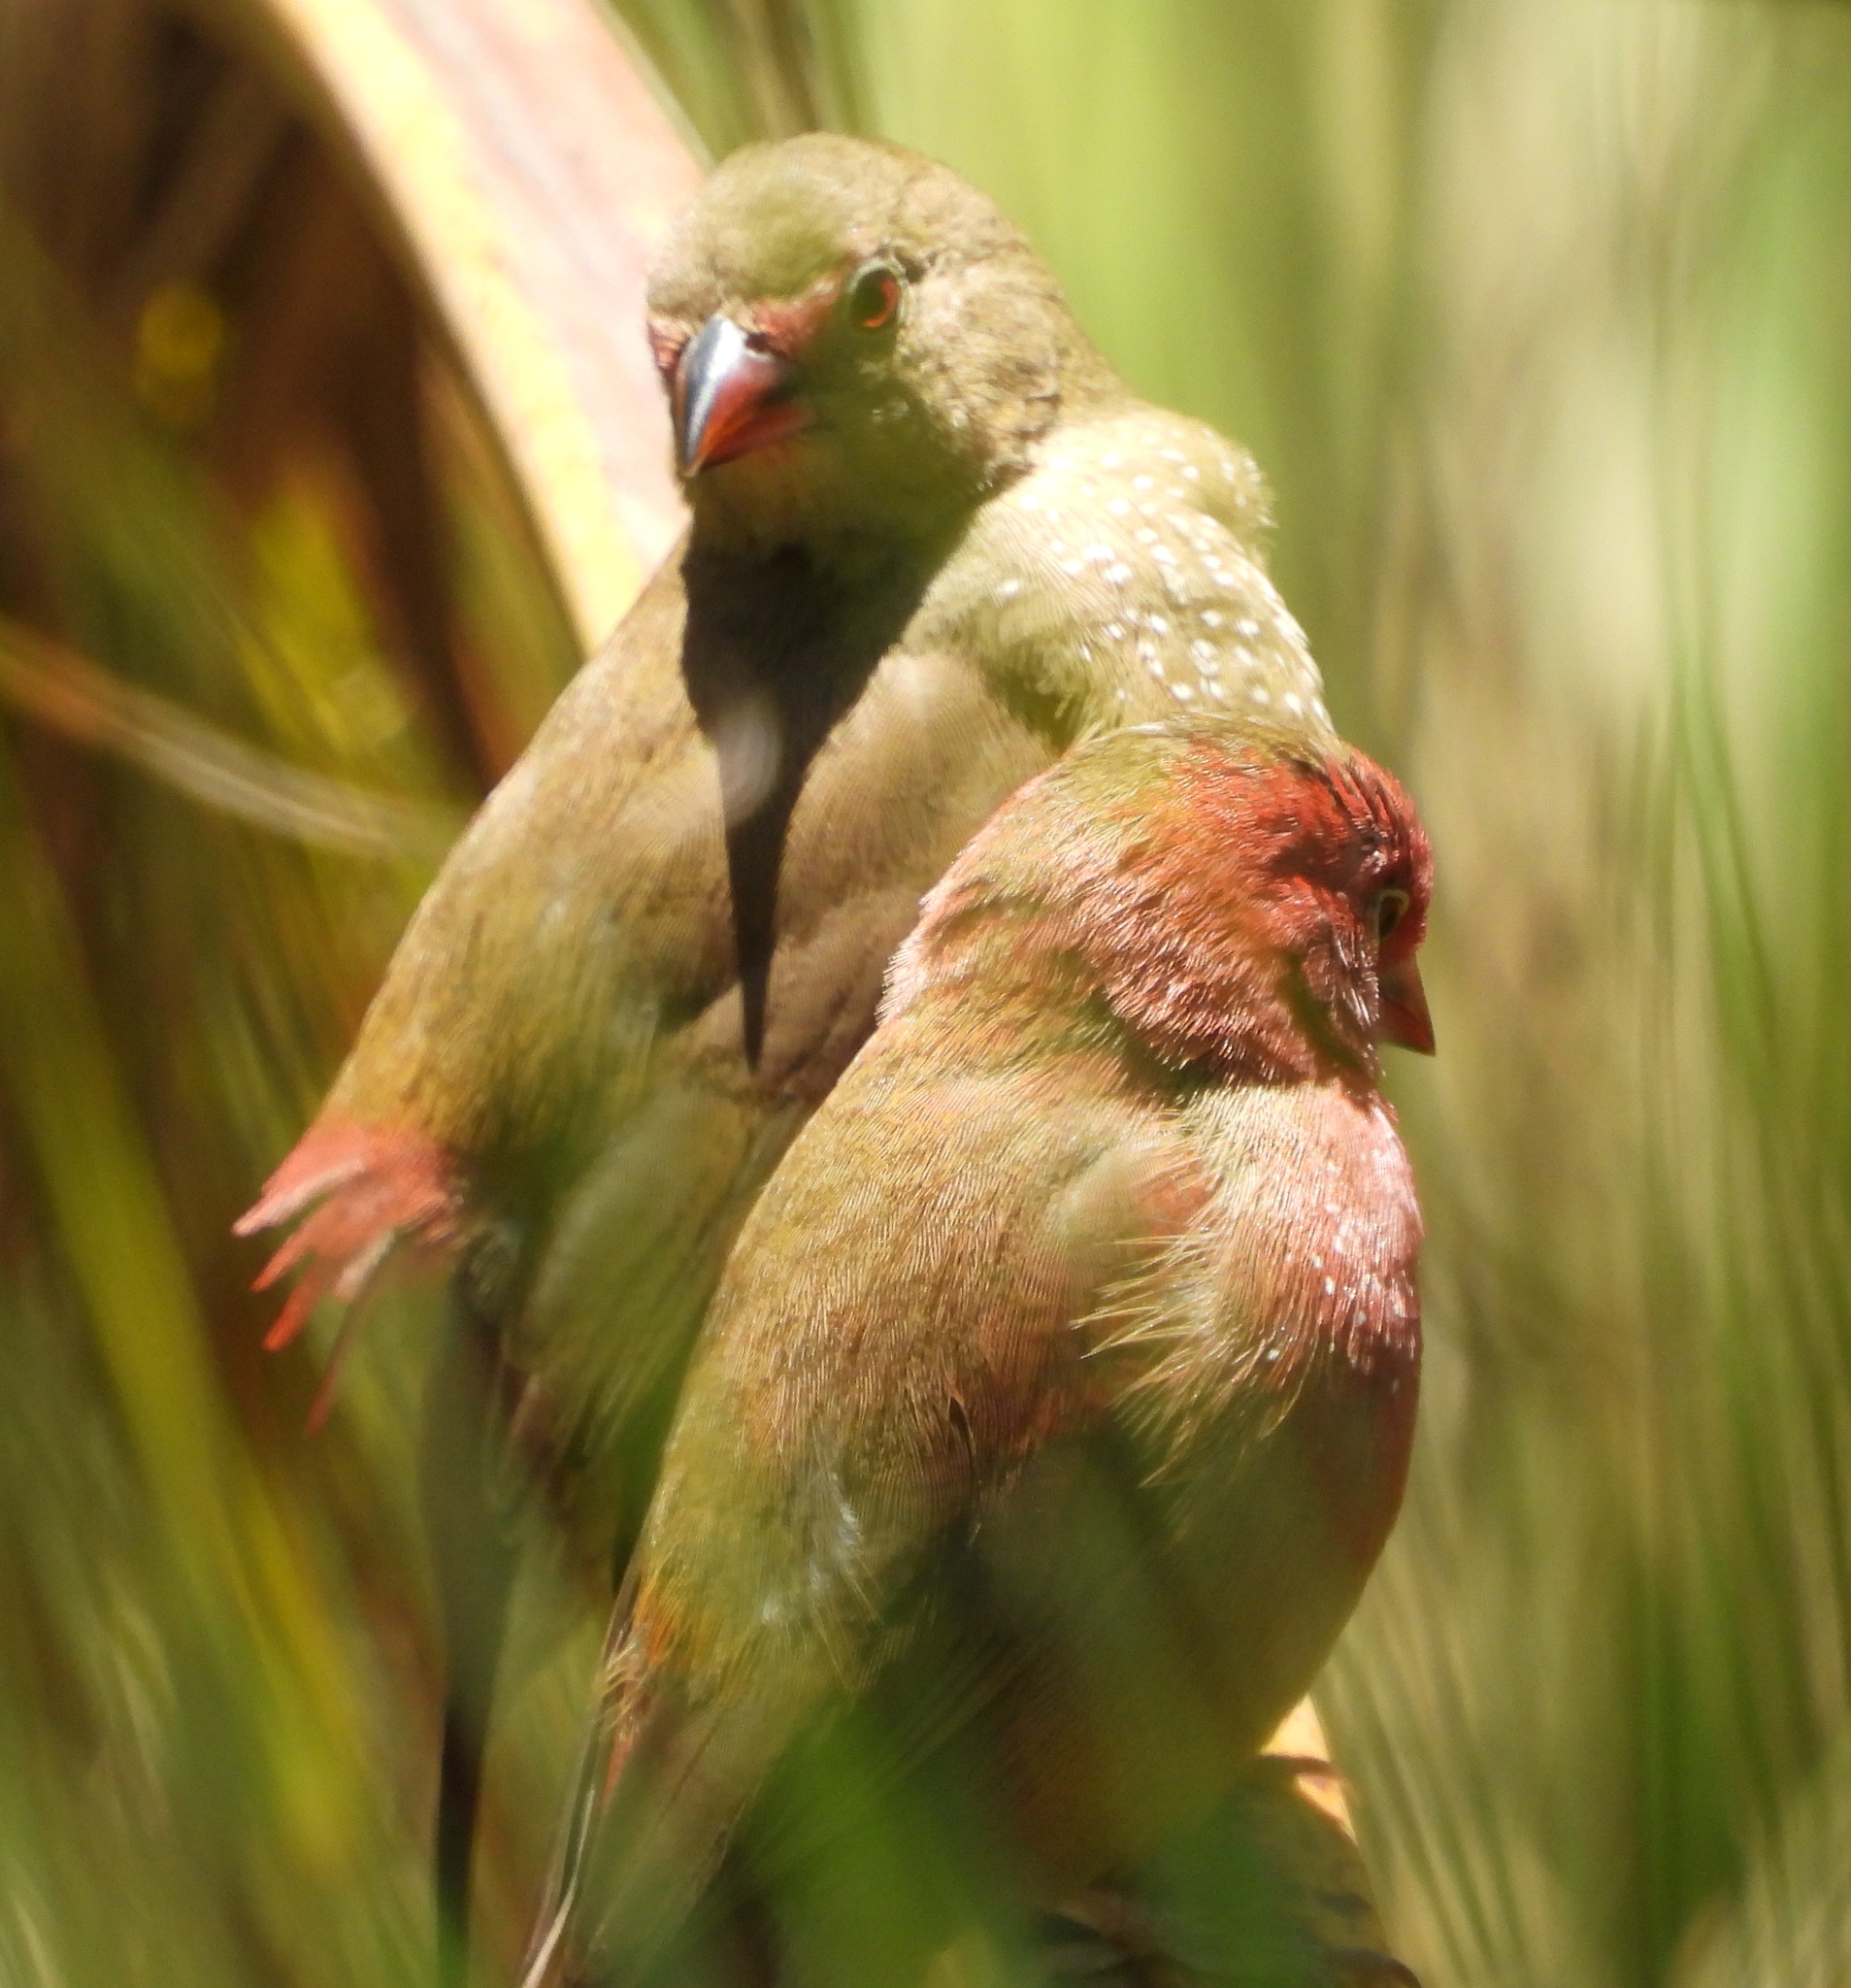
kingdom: Animalia
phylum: Chordata
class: Aves
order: Passeriformes
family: Estrildidae
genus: Lagonosticta
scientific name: Lagonosticta senegala
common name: Red-billed firefinch
